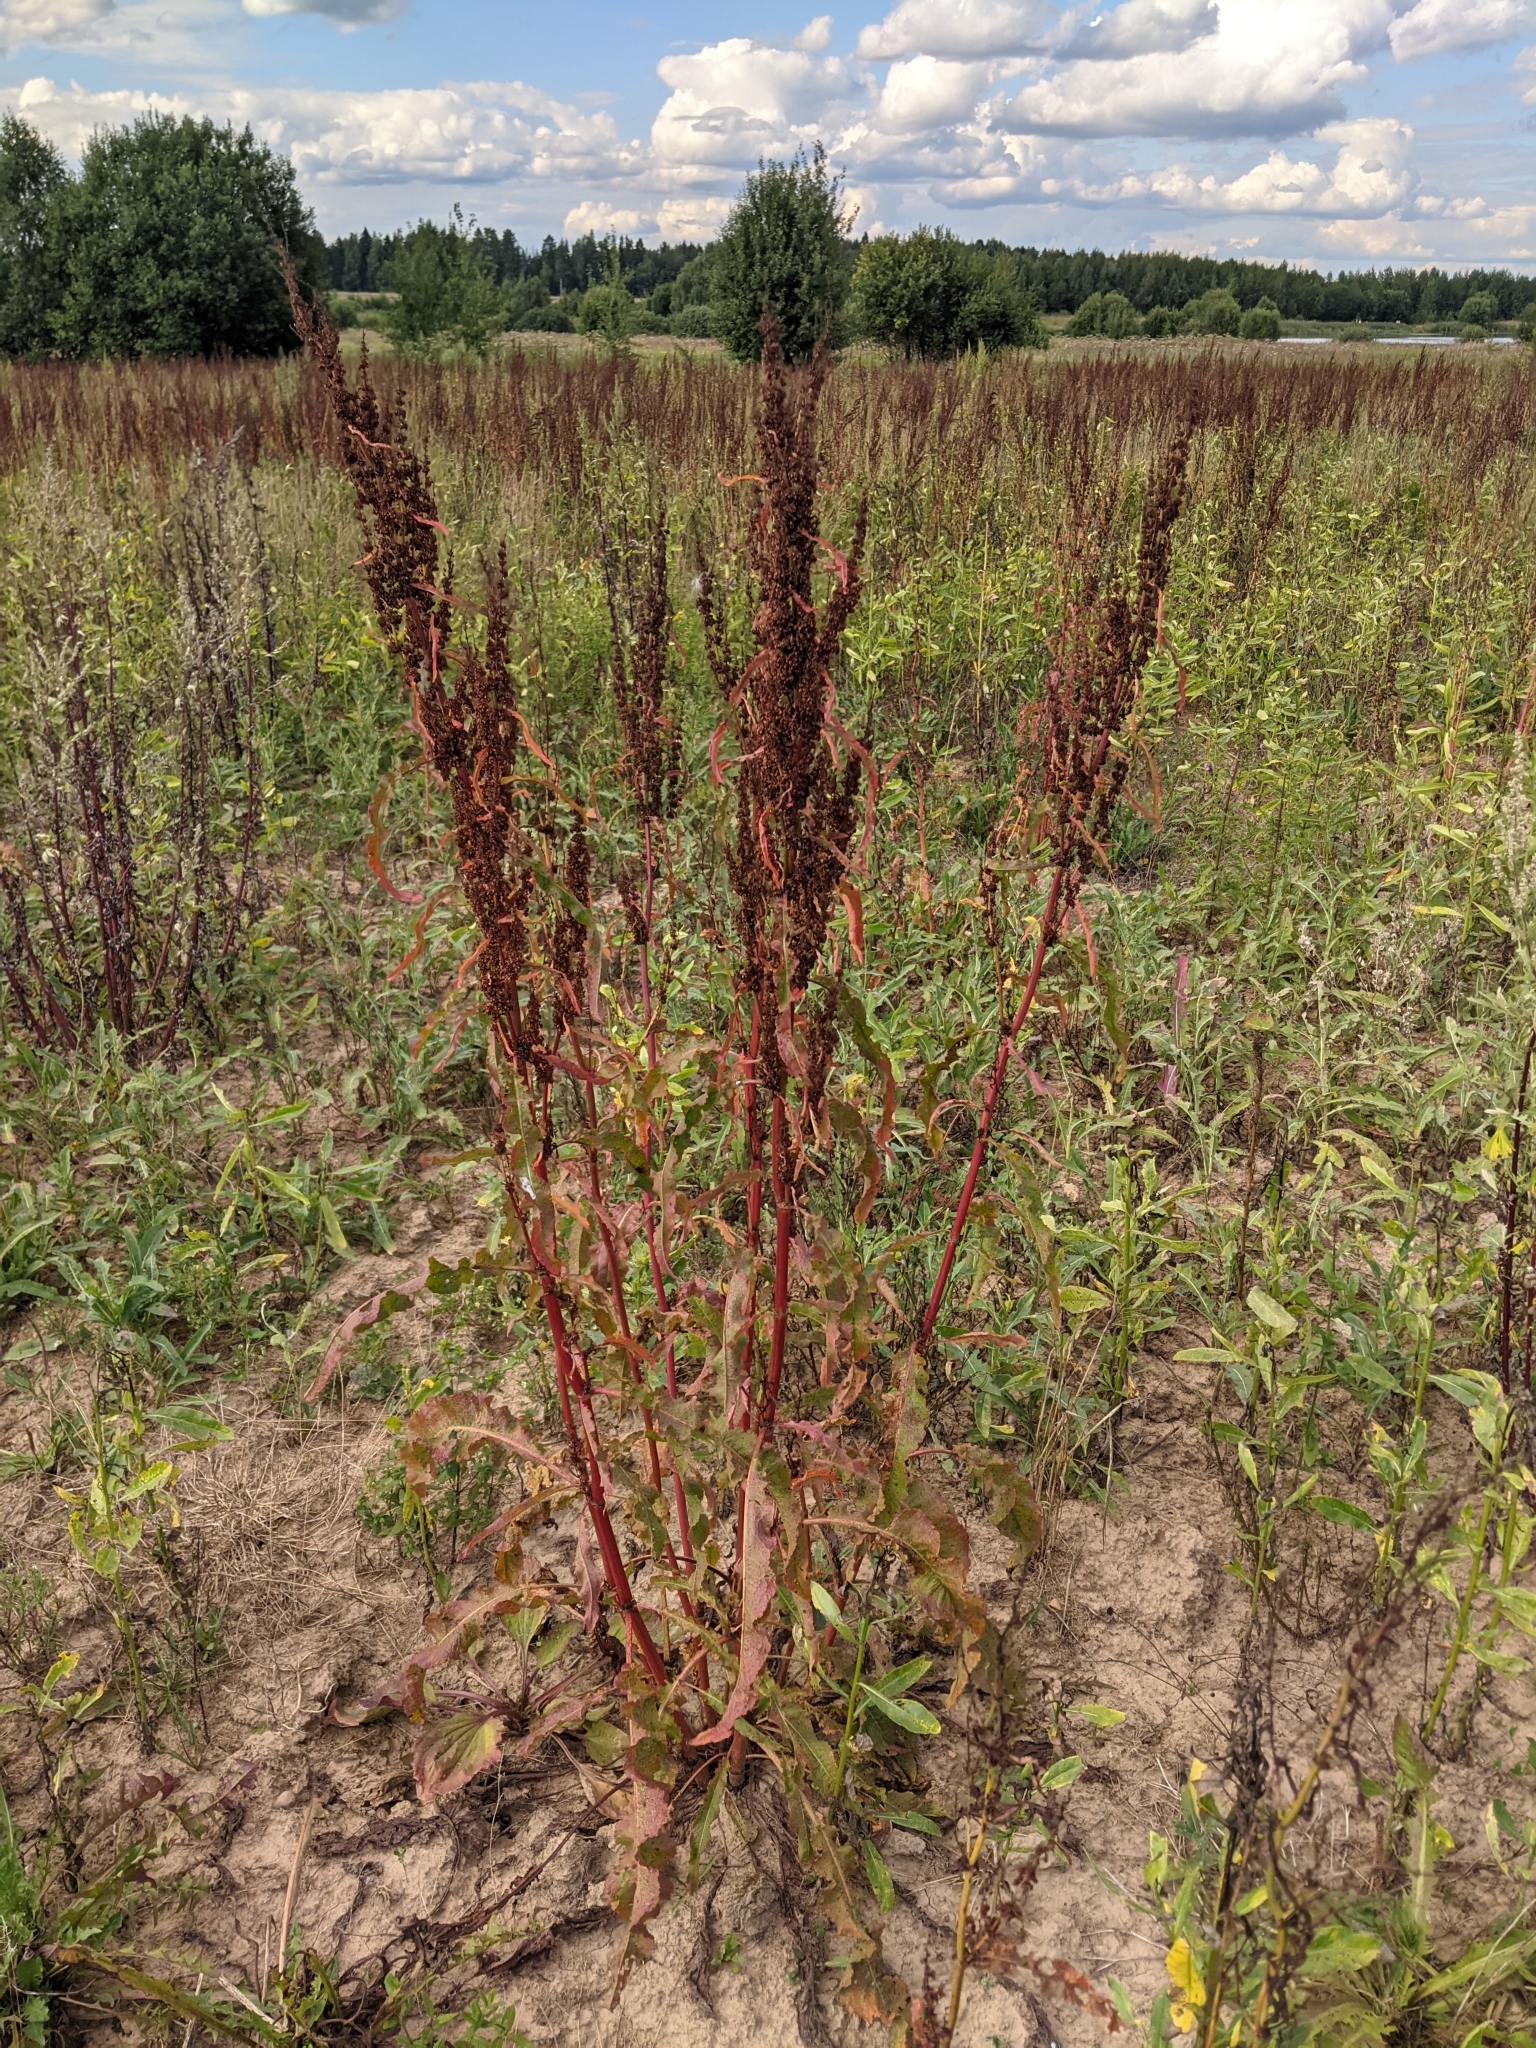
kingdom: Plantae
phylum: Tracheophyta
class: Magnoliopsida
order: Caryophyllales
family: Polygonaceae
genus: Rumex
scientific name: Rumex crispus
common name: Curled dock
